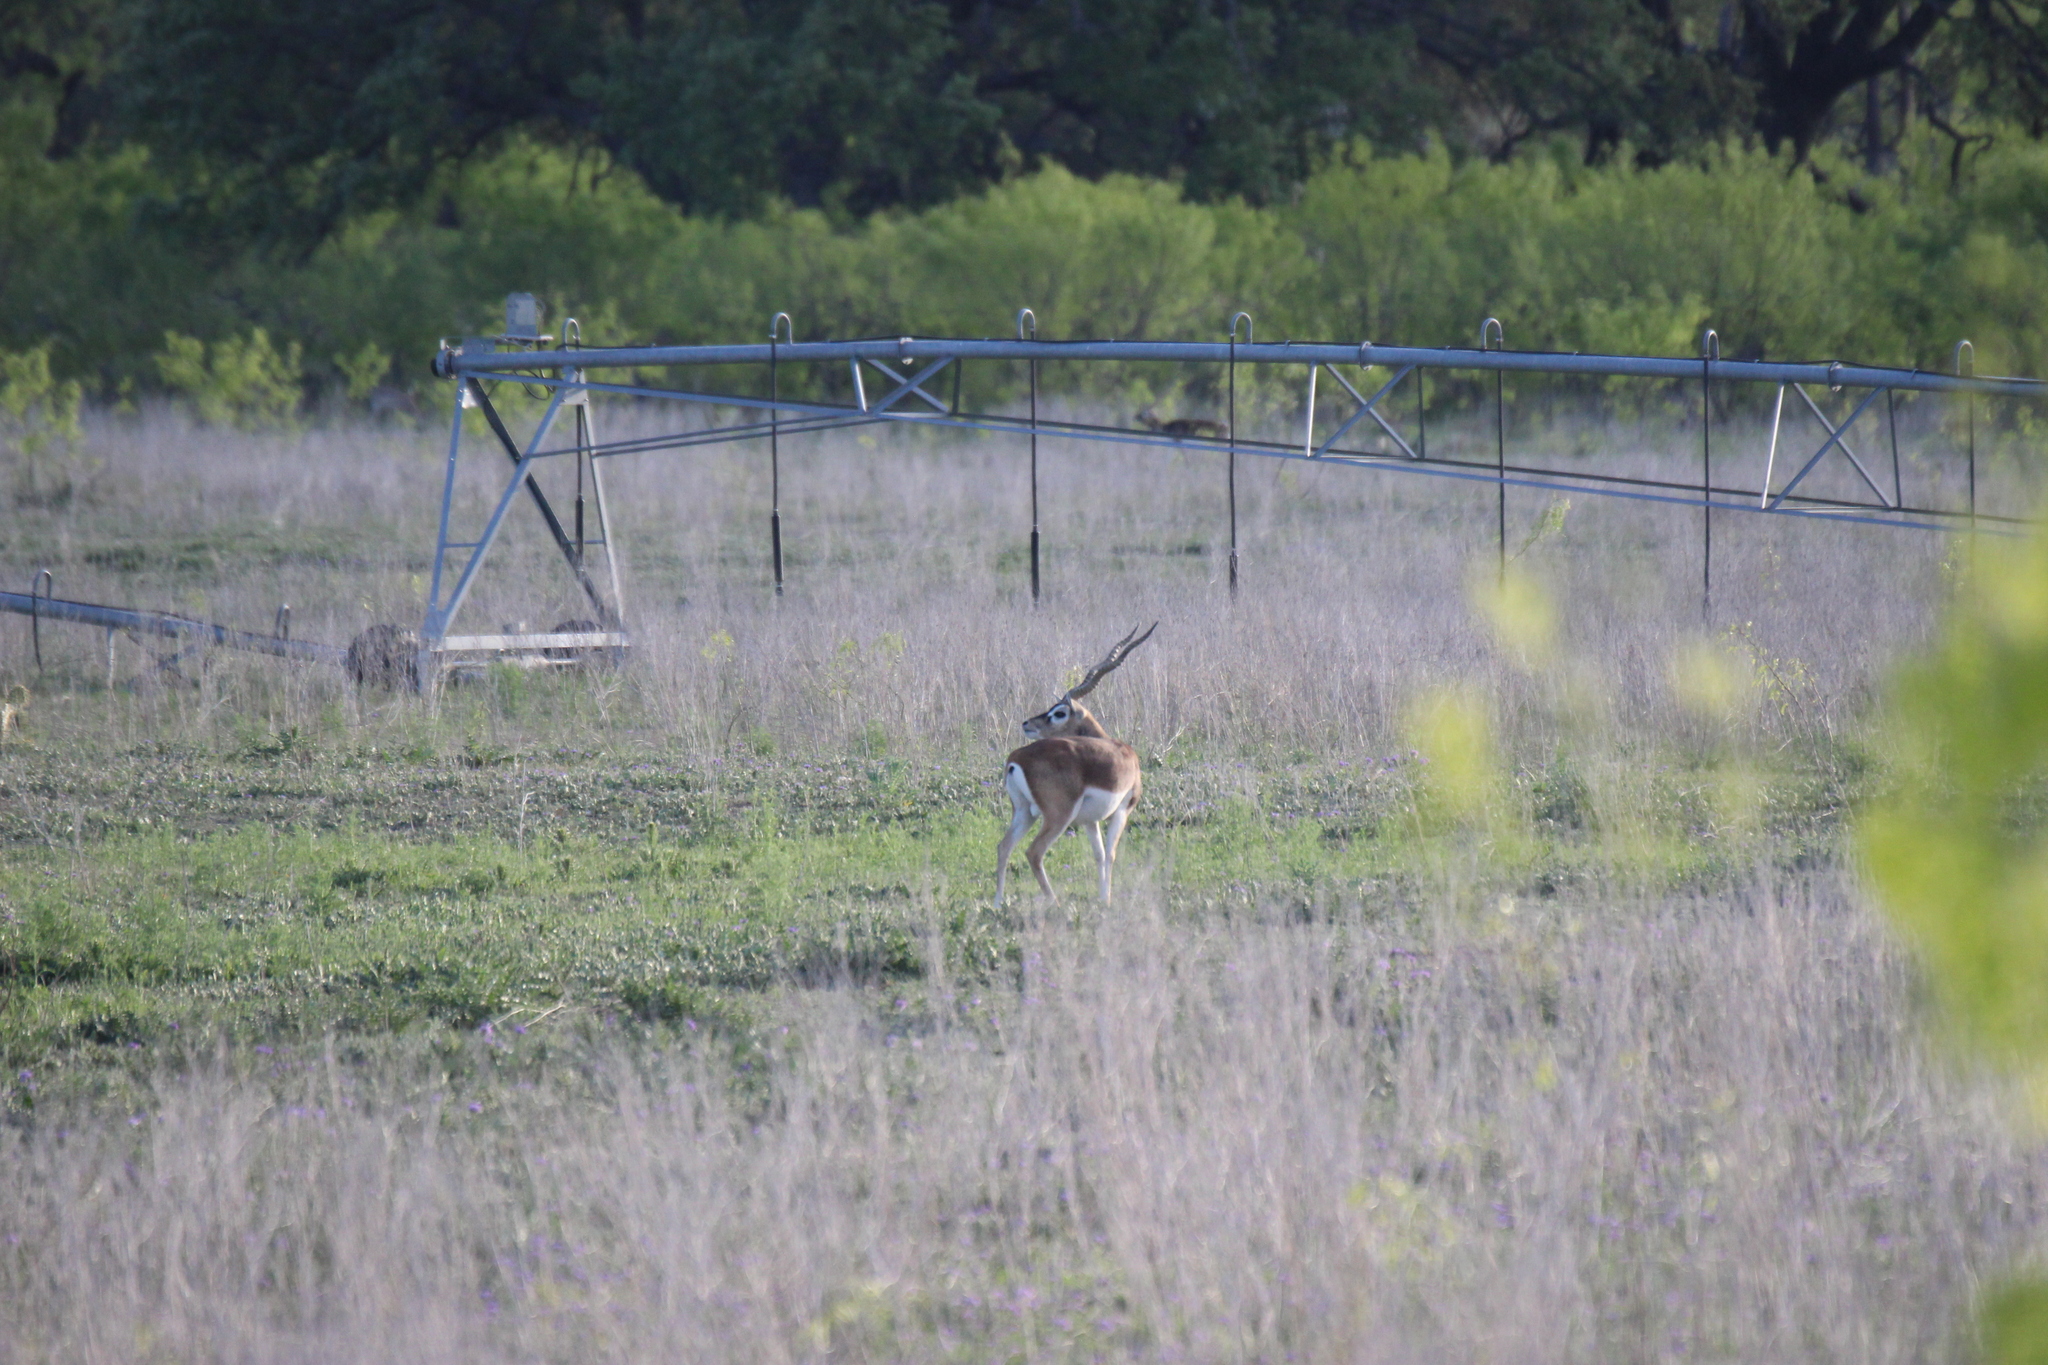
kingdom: Animalia
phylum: Chordata
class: Mammalia
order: Artiodactyla
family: Bovidae
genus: Antilope
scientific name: Antilope cervicapra
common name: Blackbuck
